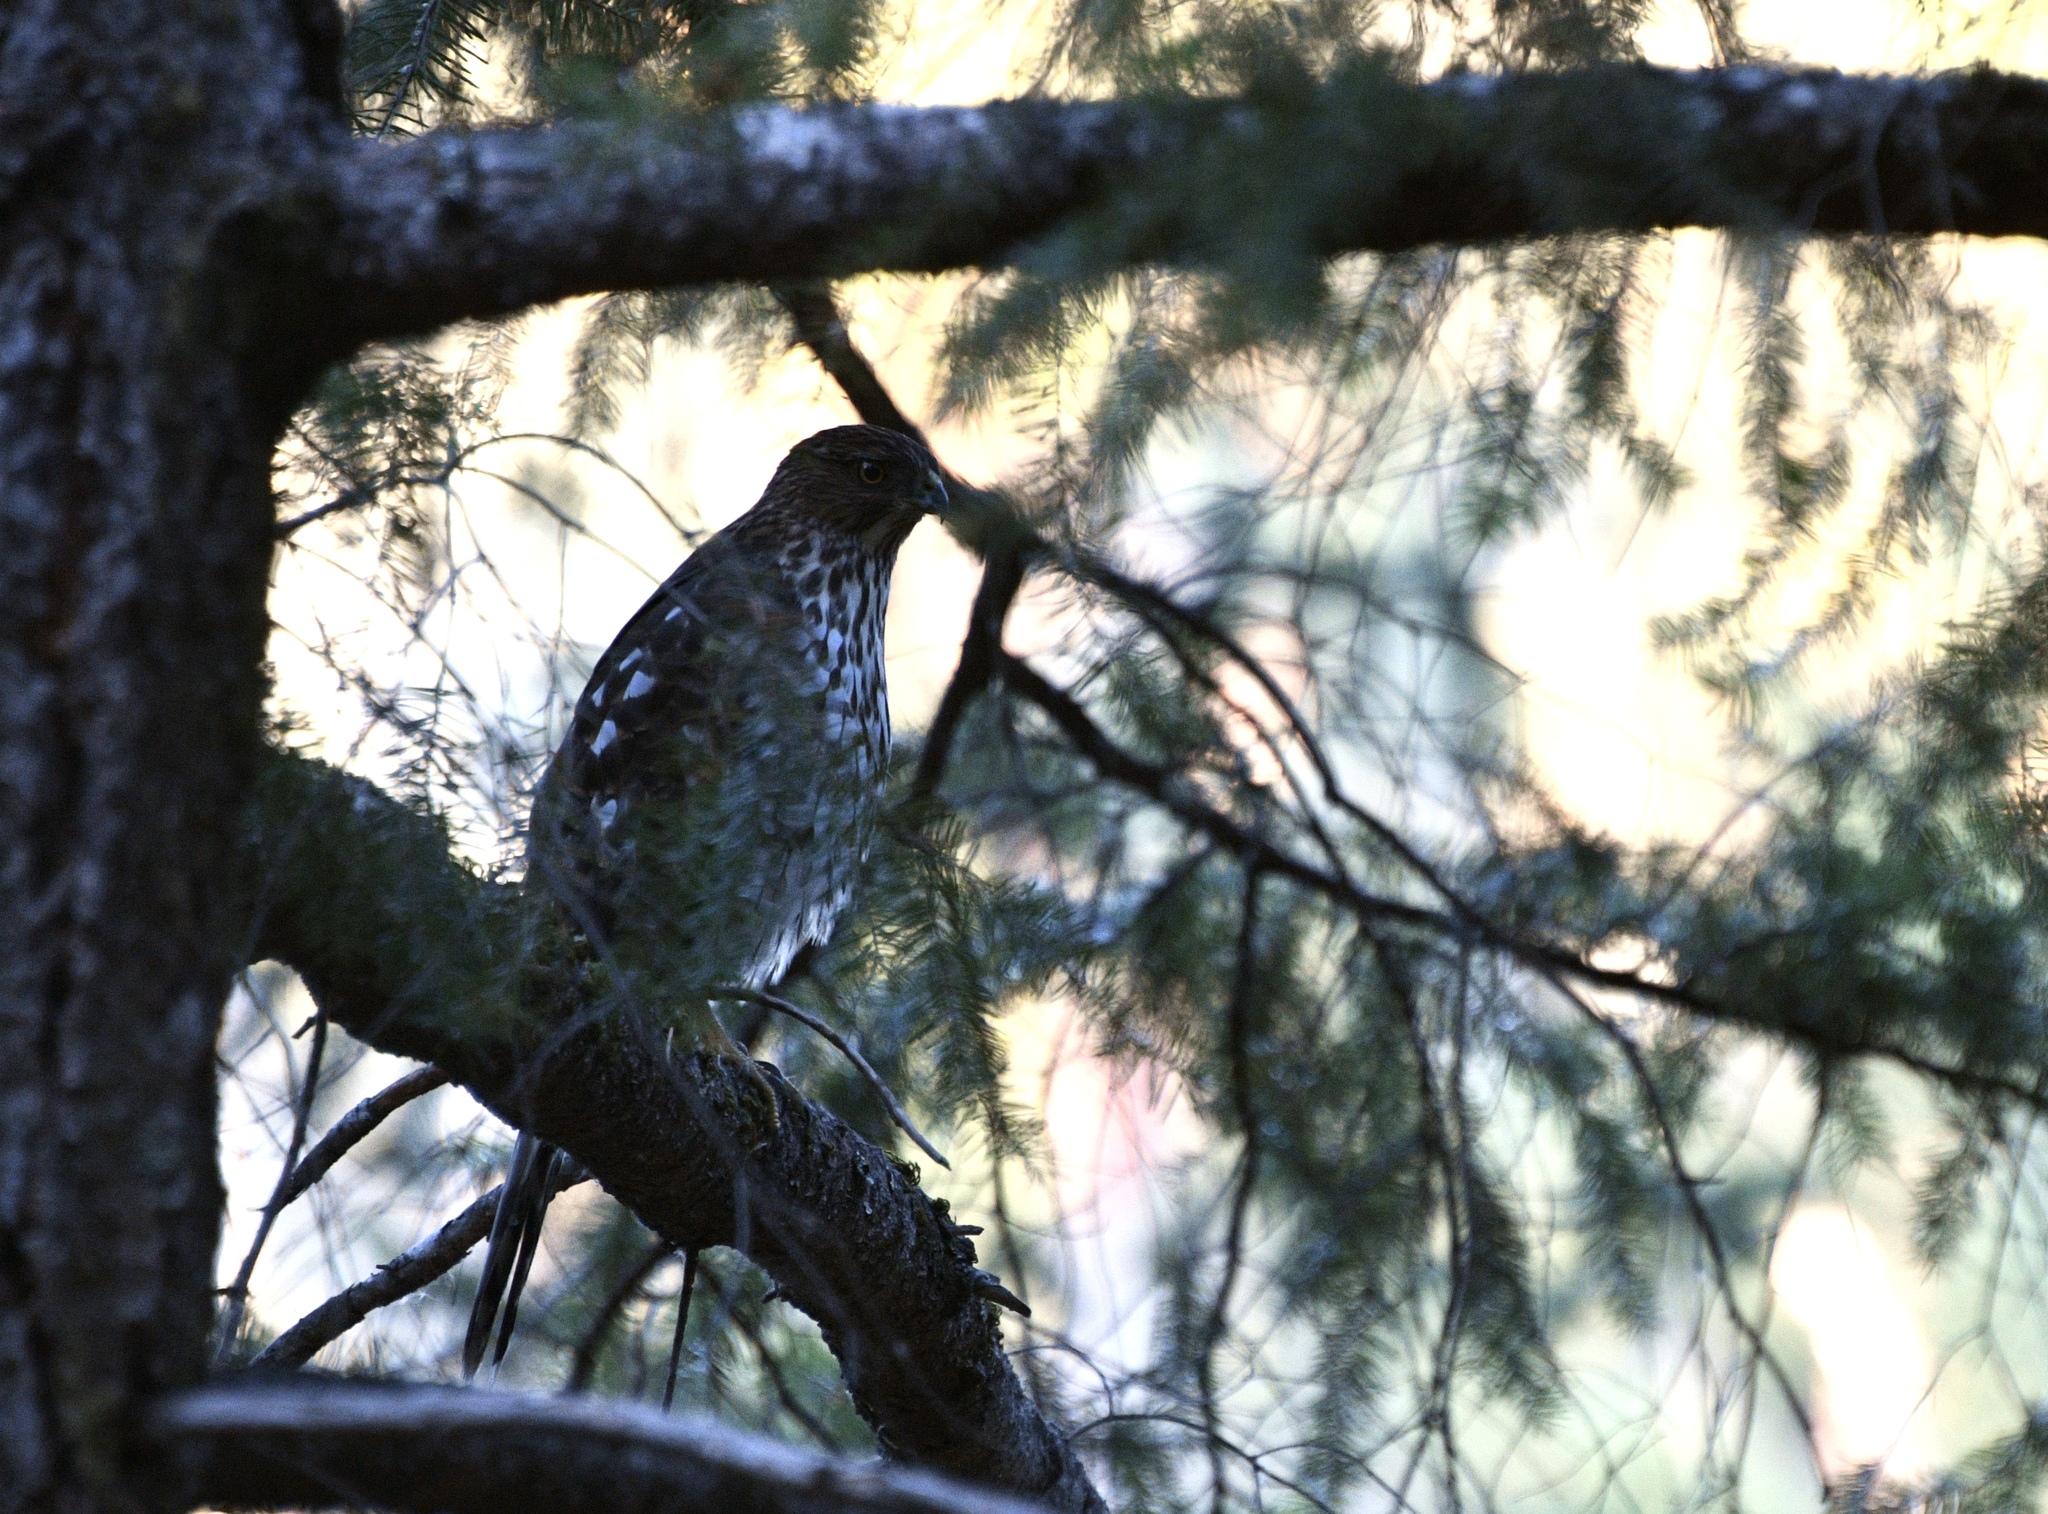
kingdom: Animalia
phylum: Chordata
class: Aves
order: Accipitriformes
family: Accipitridae
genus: Accipiter
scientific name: Accipiter cooperii
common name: Cooper's hawk
